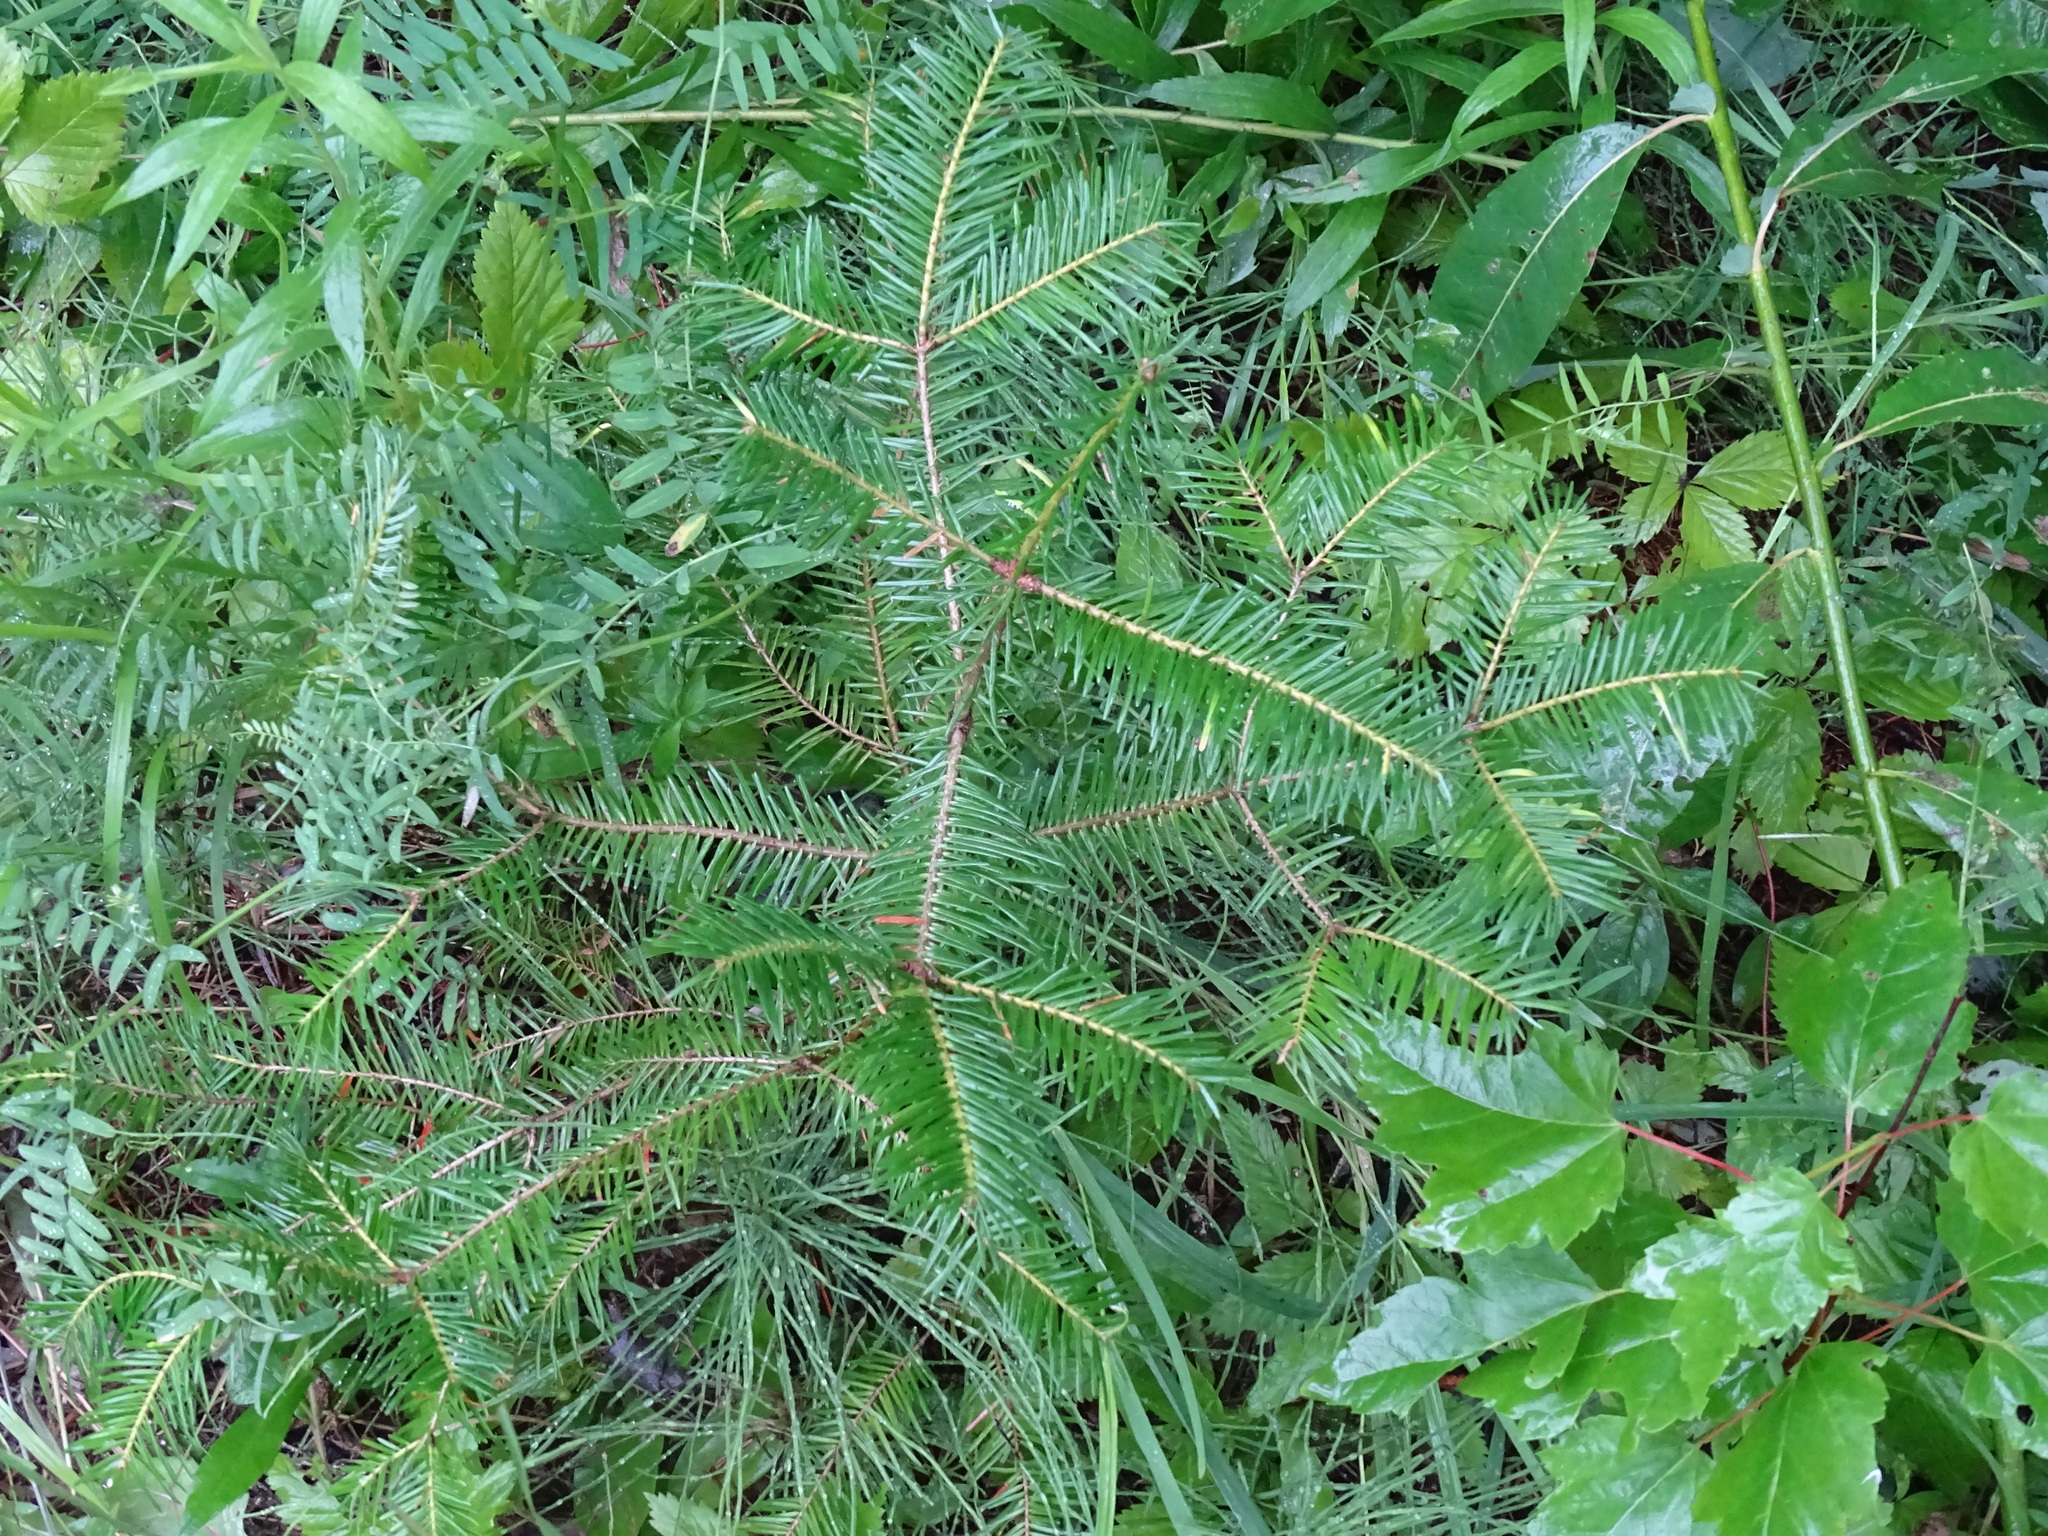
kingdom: Plantae
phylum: Tracheophyta
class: Pinopsida
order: Pinales
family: Pinaceae
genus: Abies
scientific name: Abies balsamea
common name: Balsam fir
